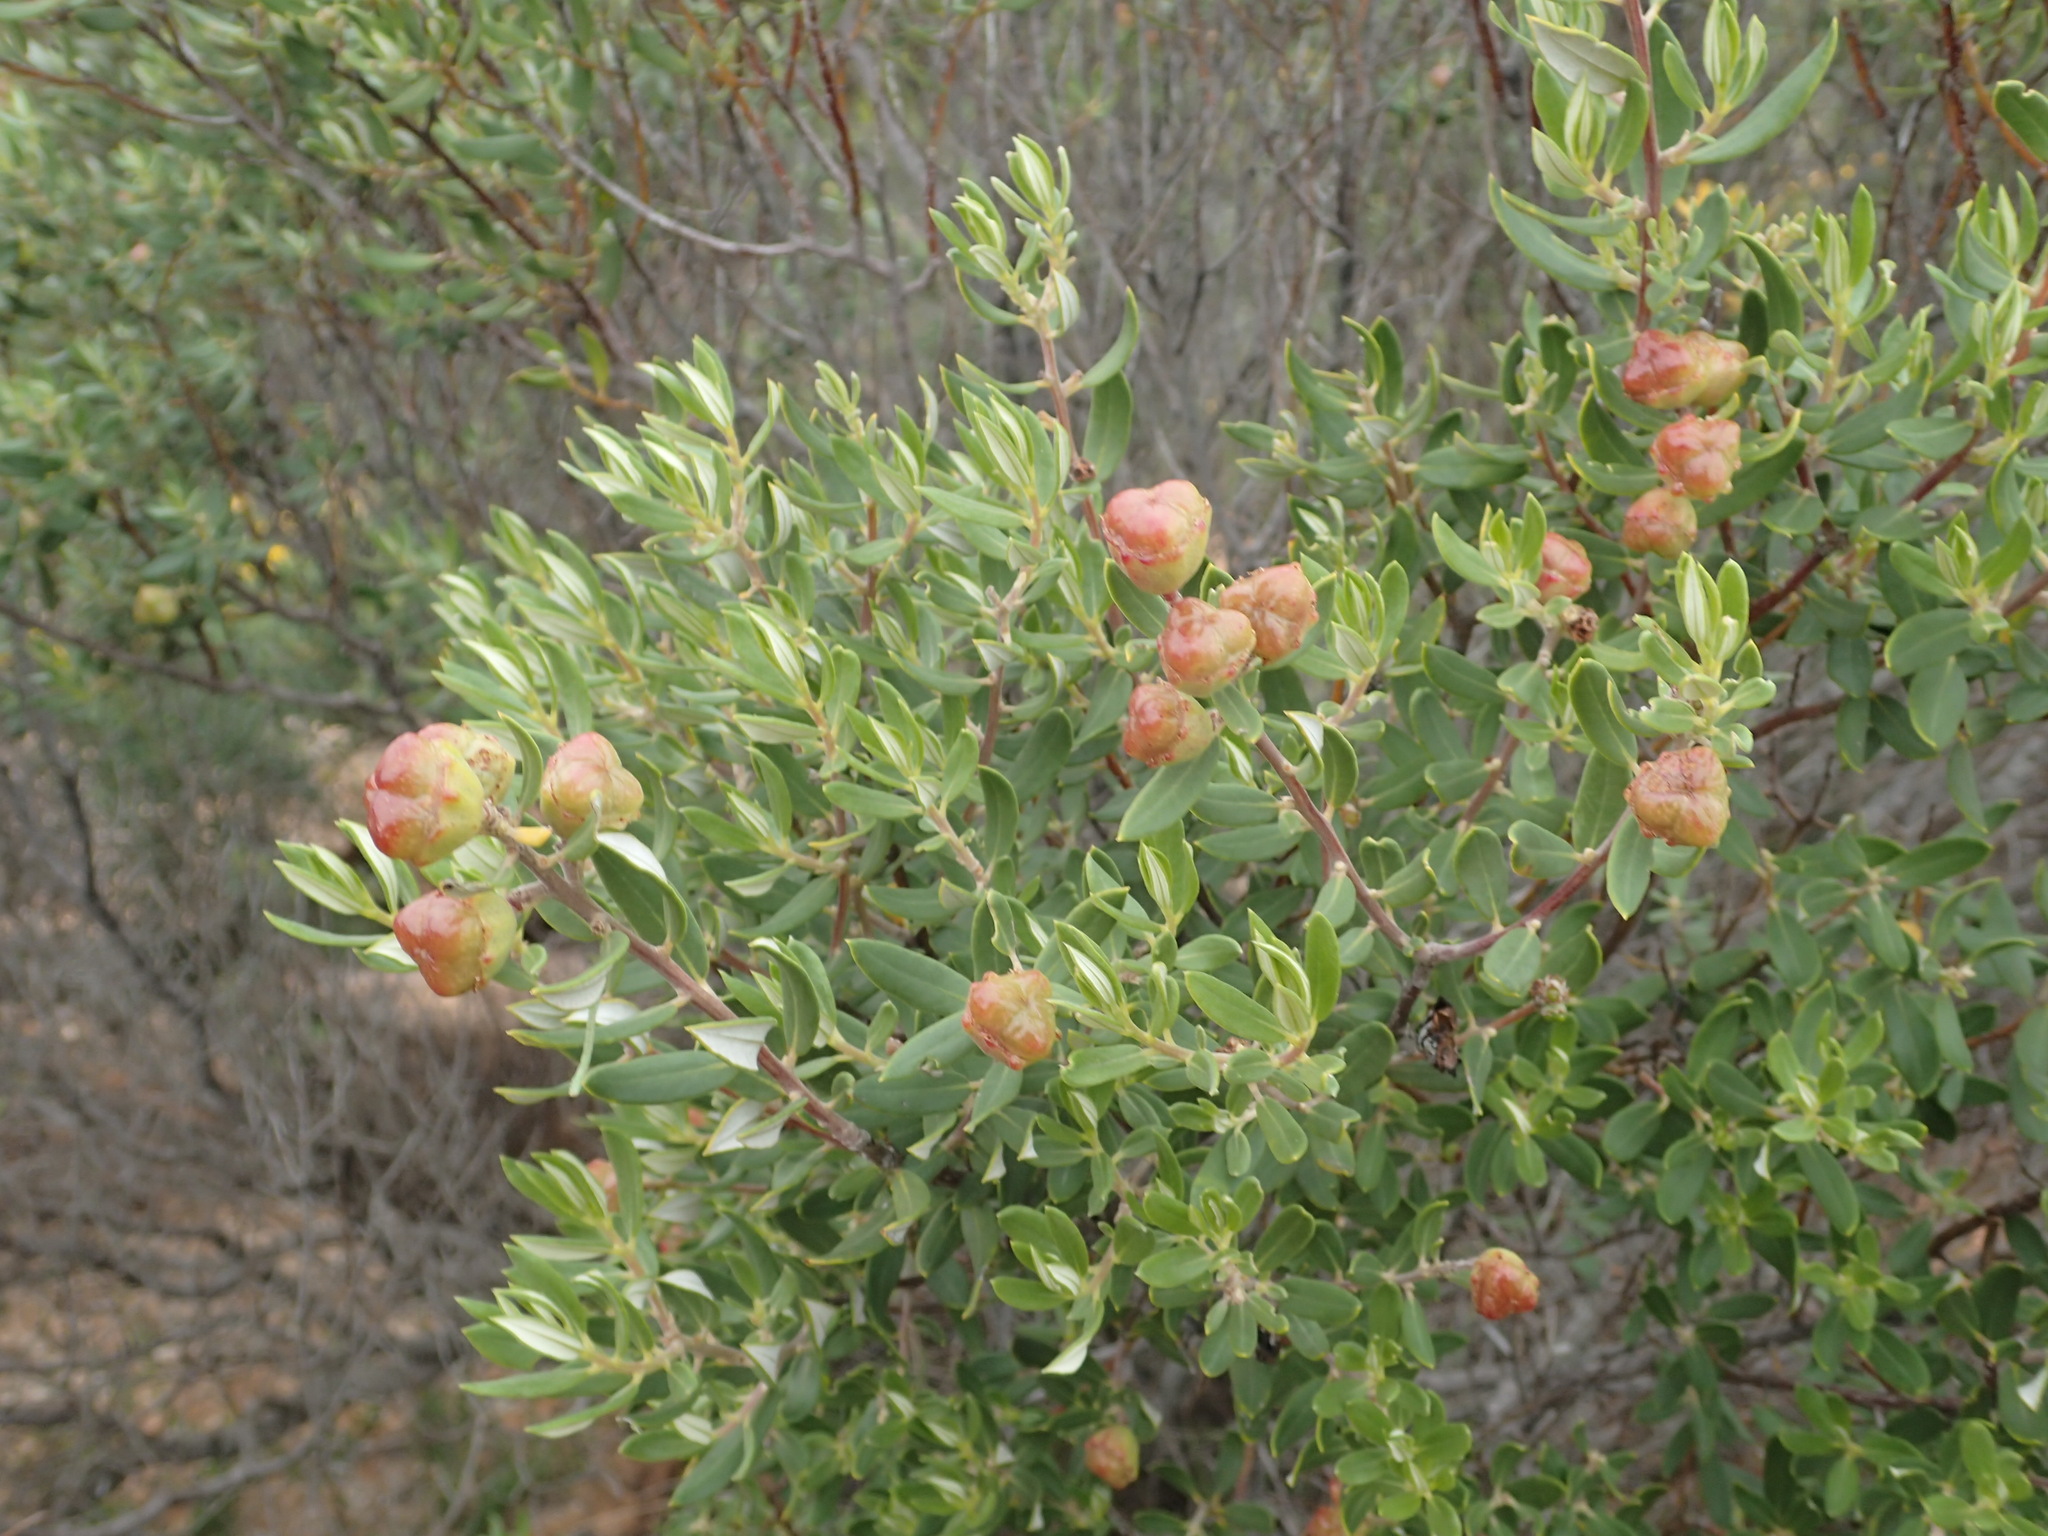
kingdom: Plantae
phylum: Tracheophyta
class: Magnoliopsida
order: Rosales
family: Rhamnaceae
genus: Phylica
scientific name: Phylica oleifolia
